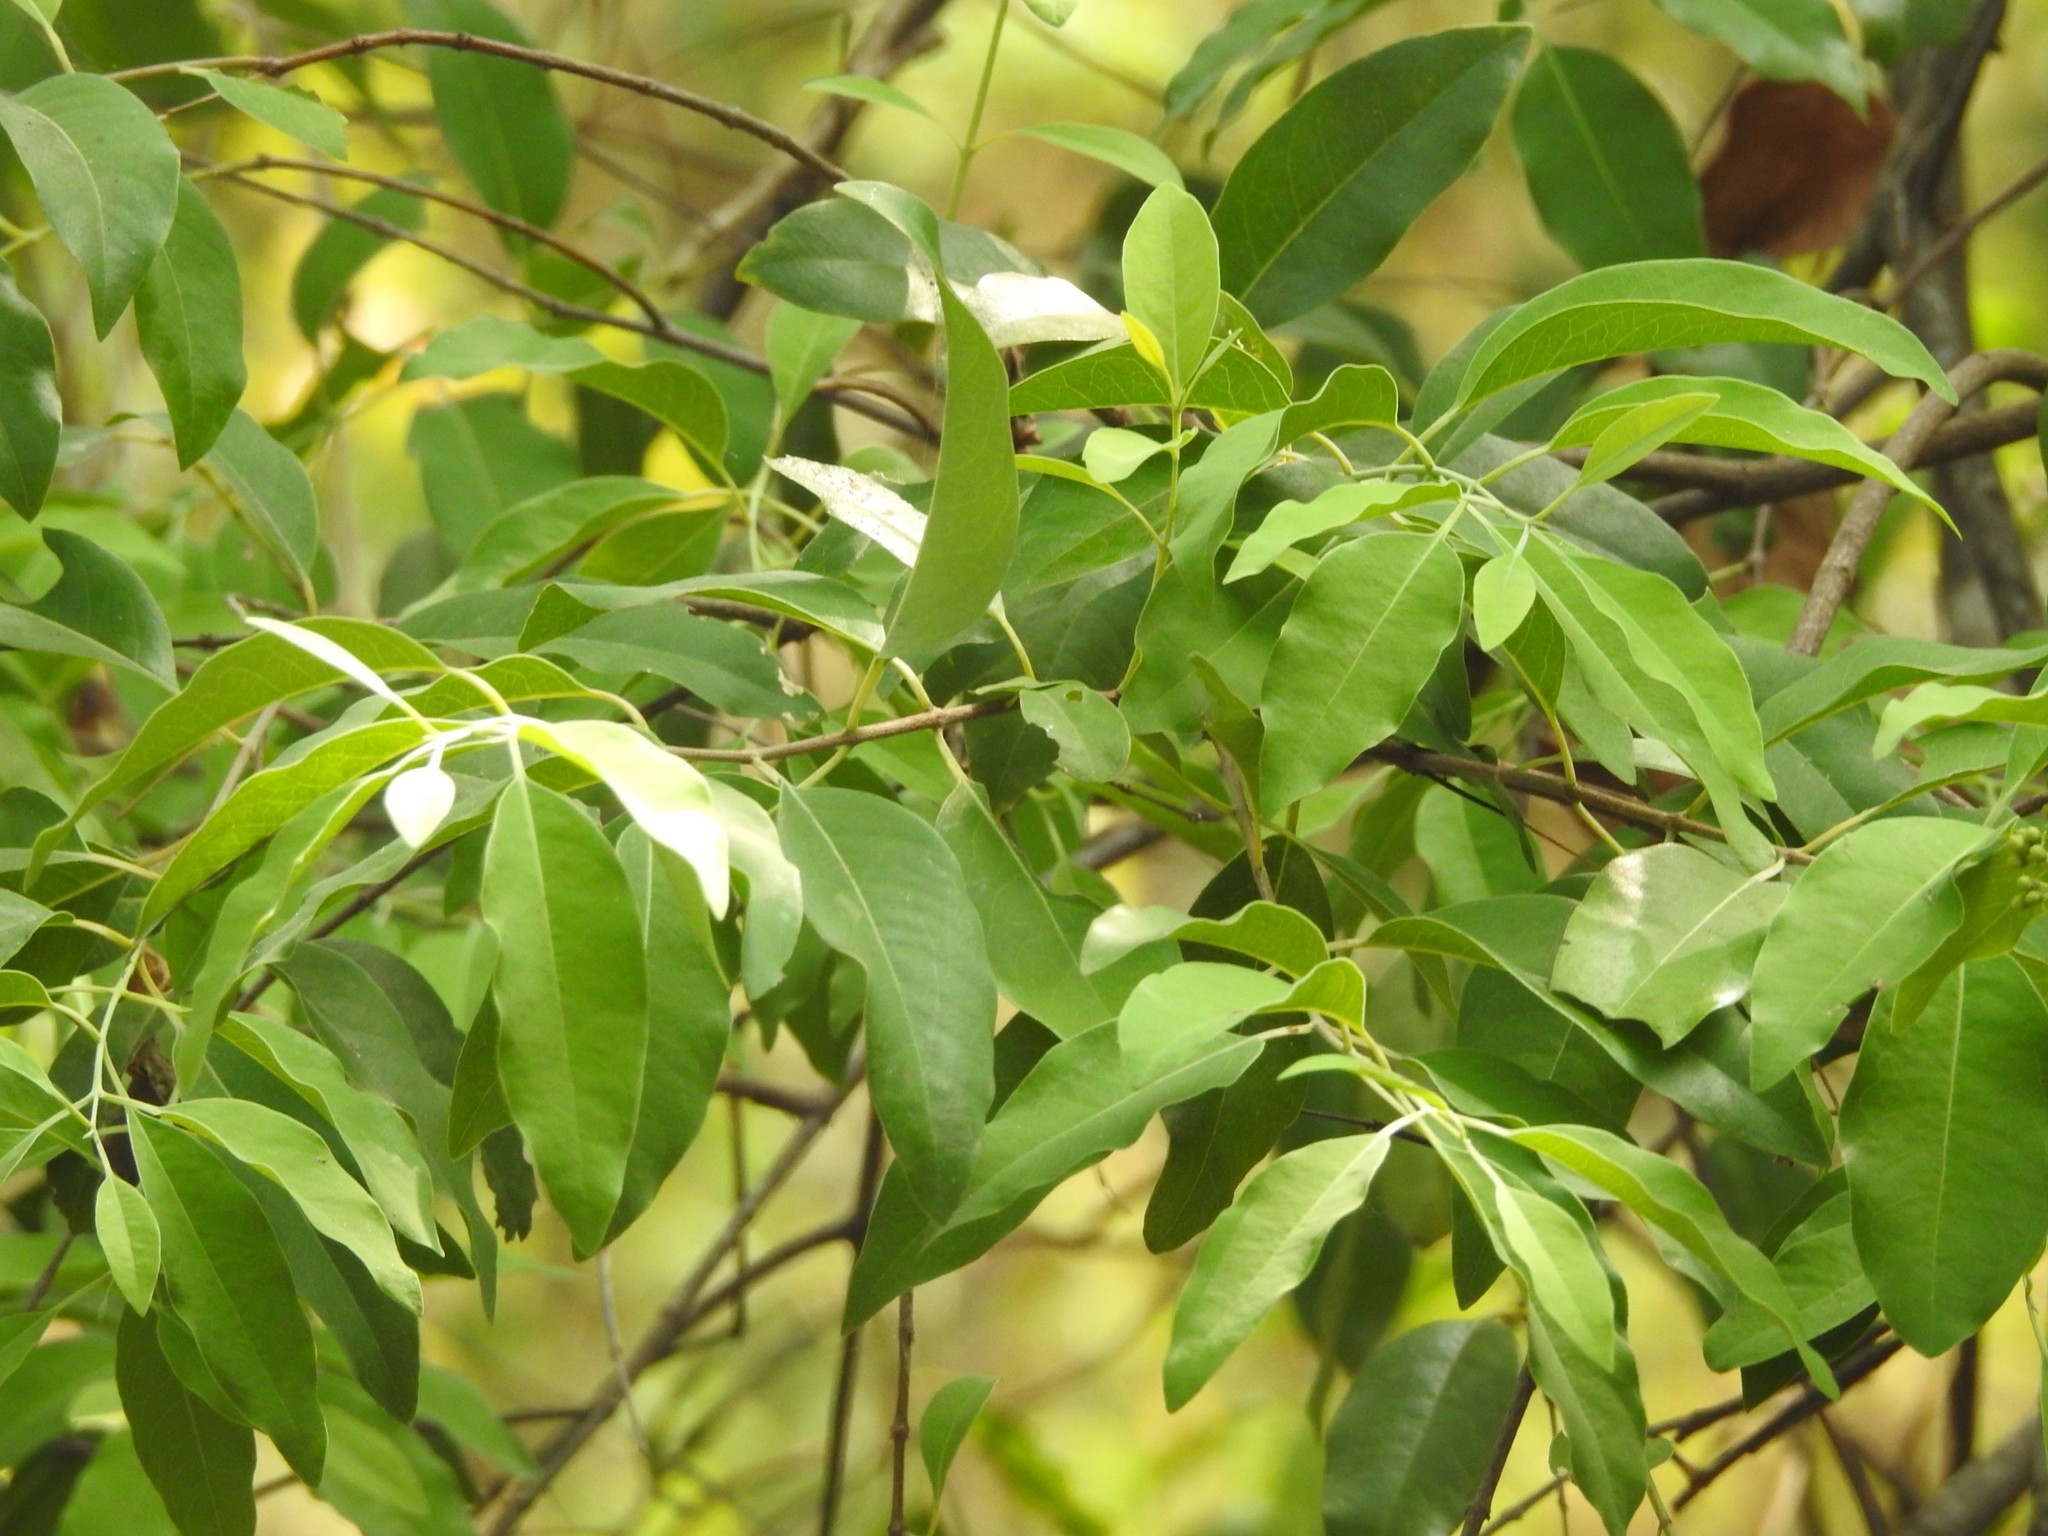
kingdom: Plantae
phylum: Tracheophyta
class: Magnoliopsida
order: Santalales
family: Santalaceae
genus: Santalum
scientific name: Santalum album
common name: Indian sandalwood
